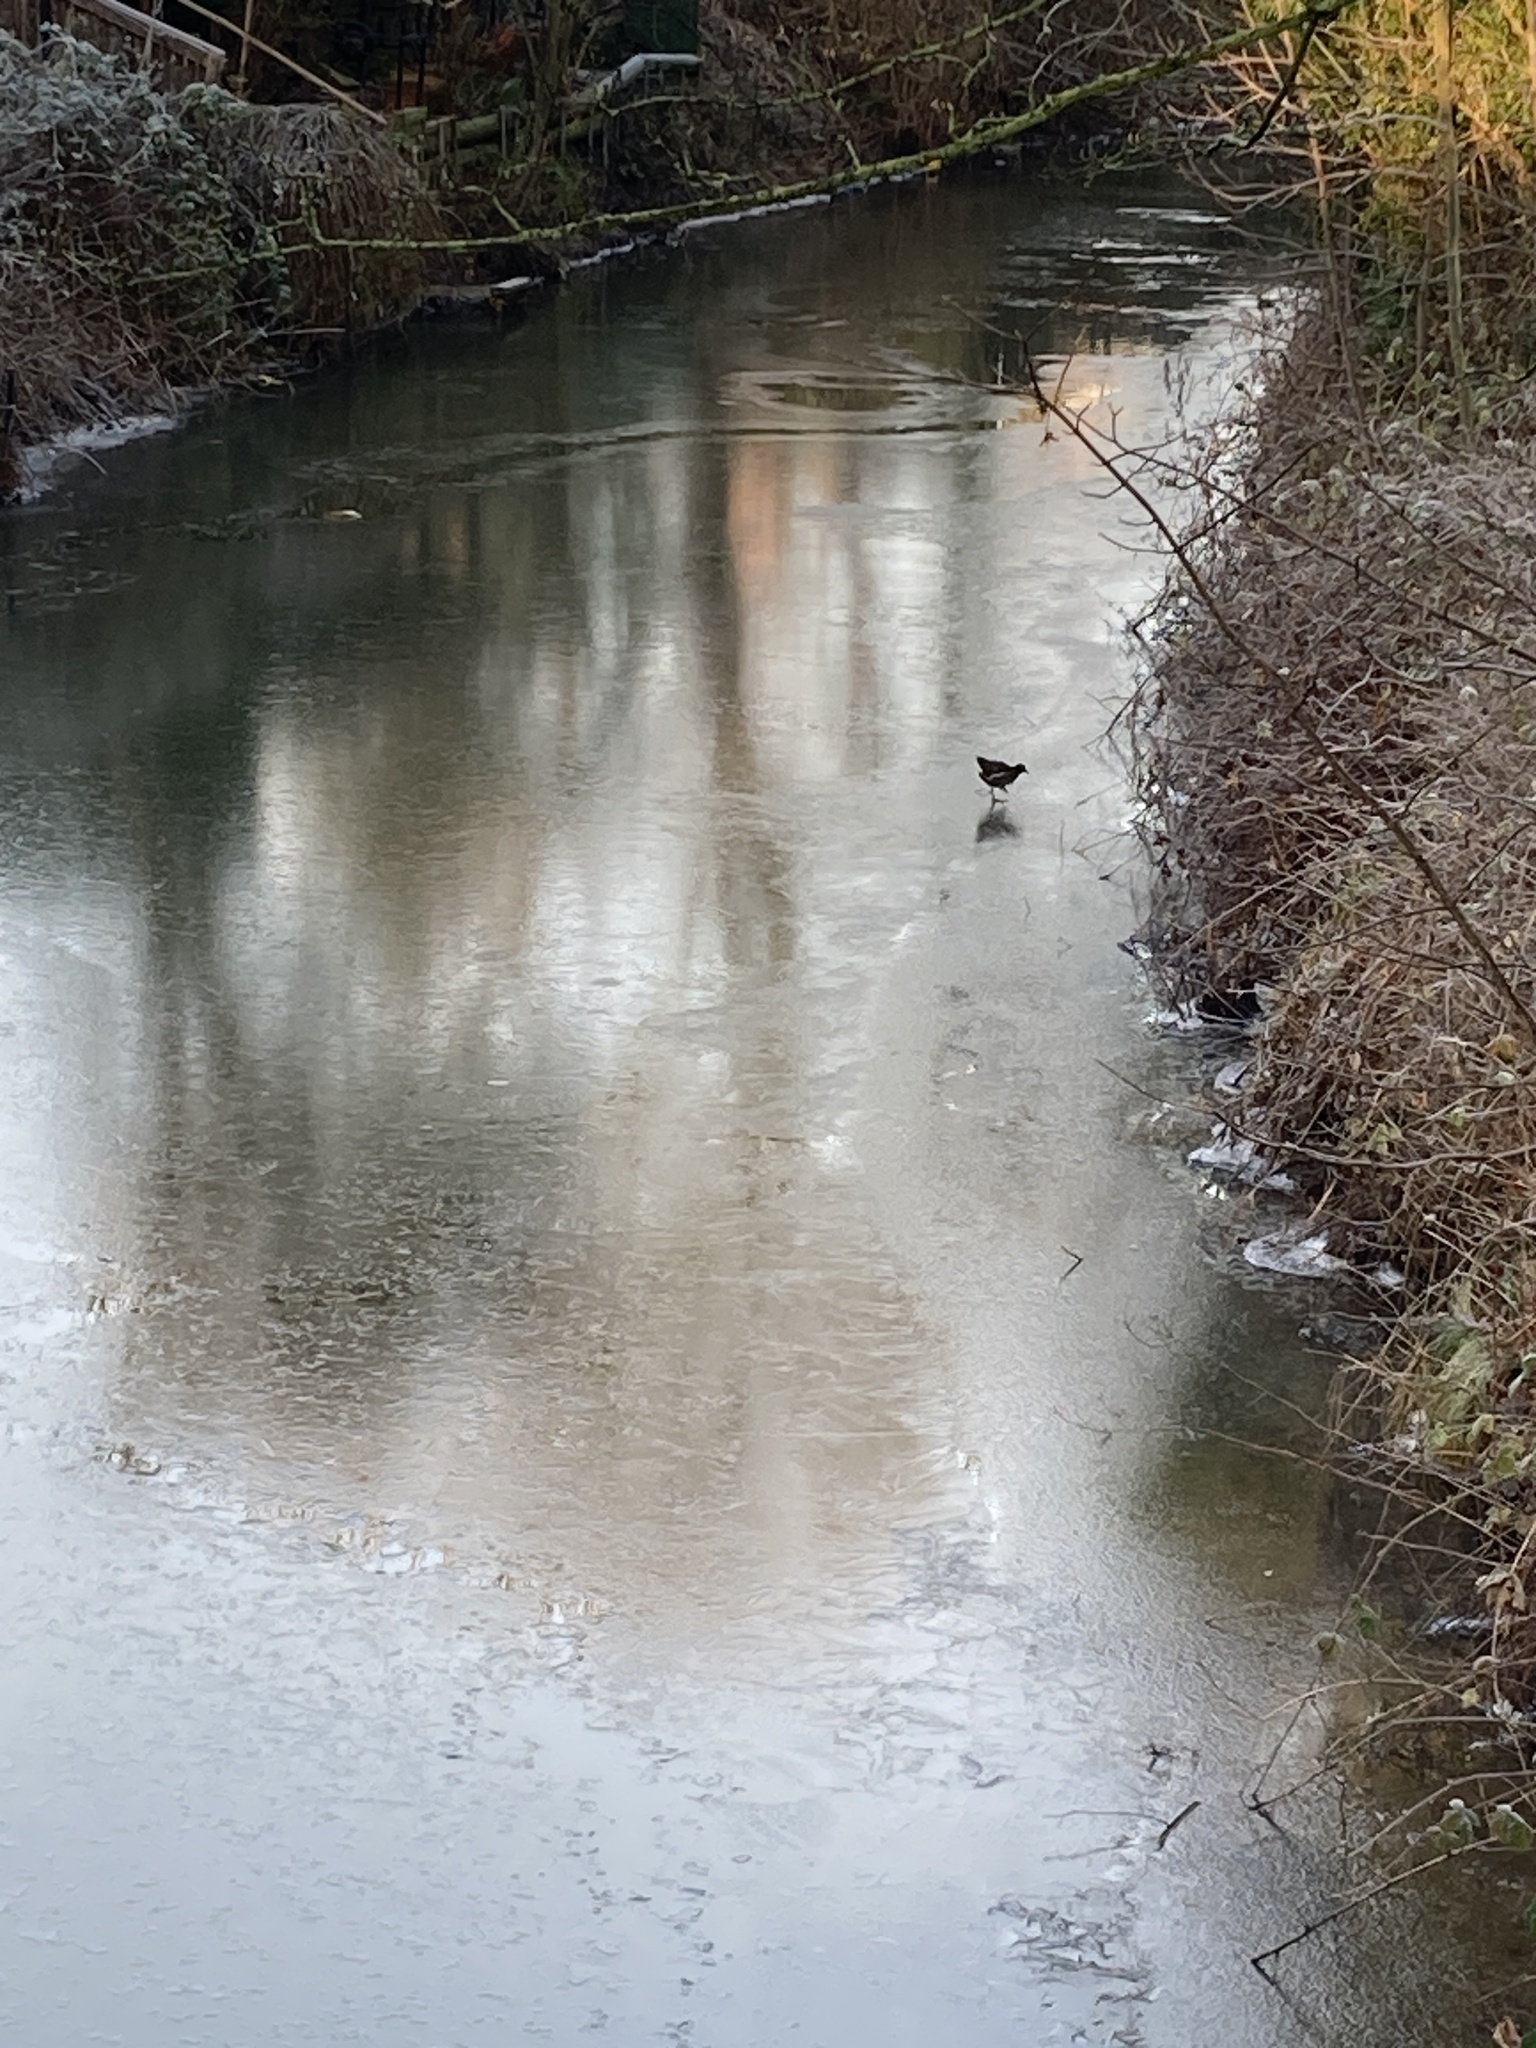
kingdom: Animalia
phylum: Chordata
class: Aves
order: Gruiformes
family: Rallidae
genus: Gallinula
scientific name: Gallinula chloropus
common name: Common moorhen
